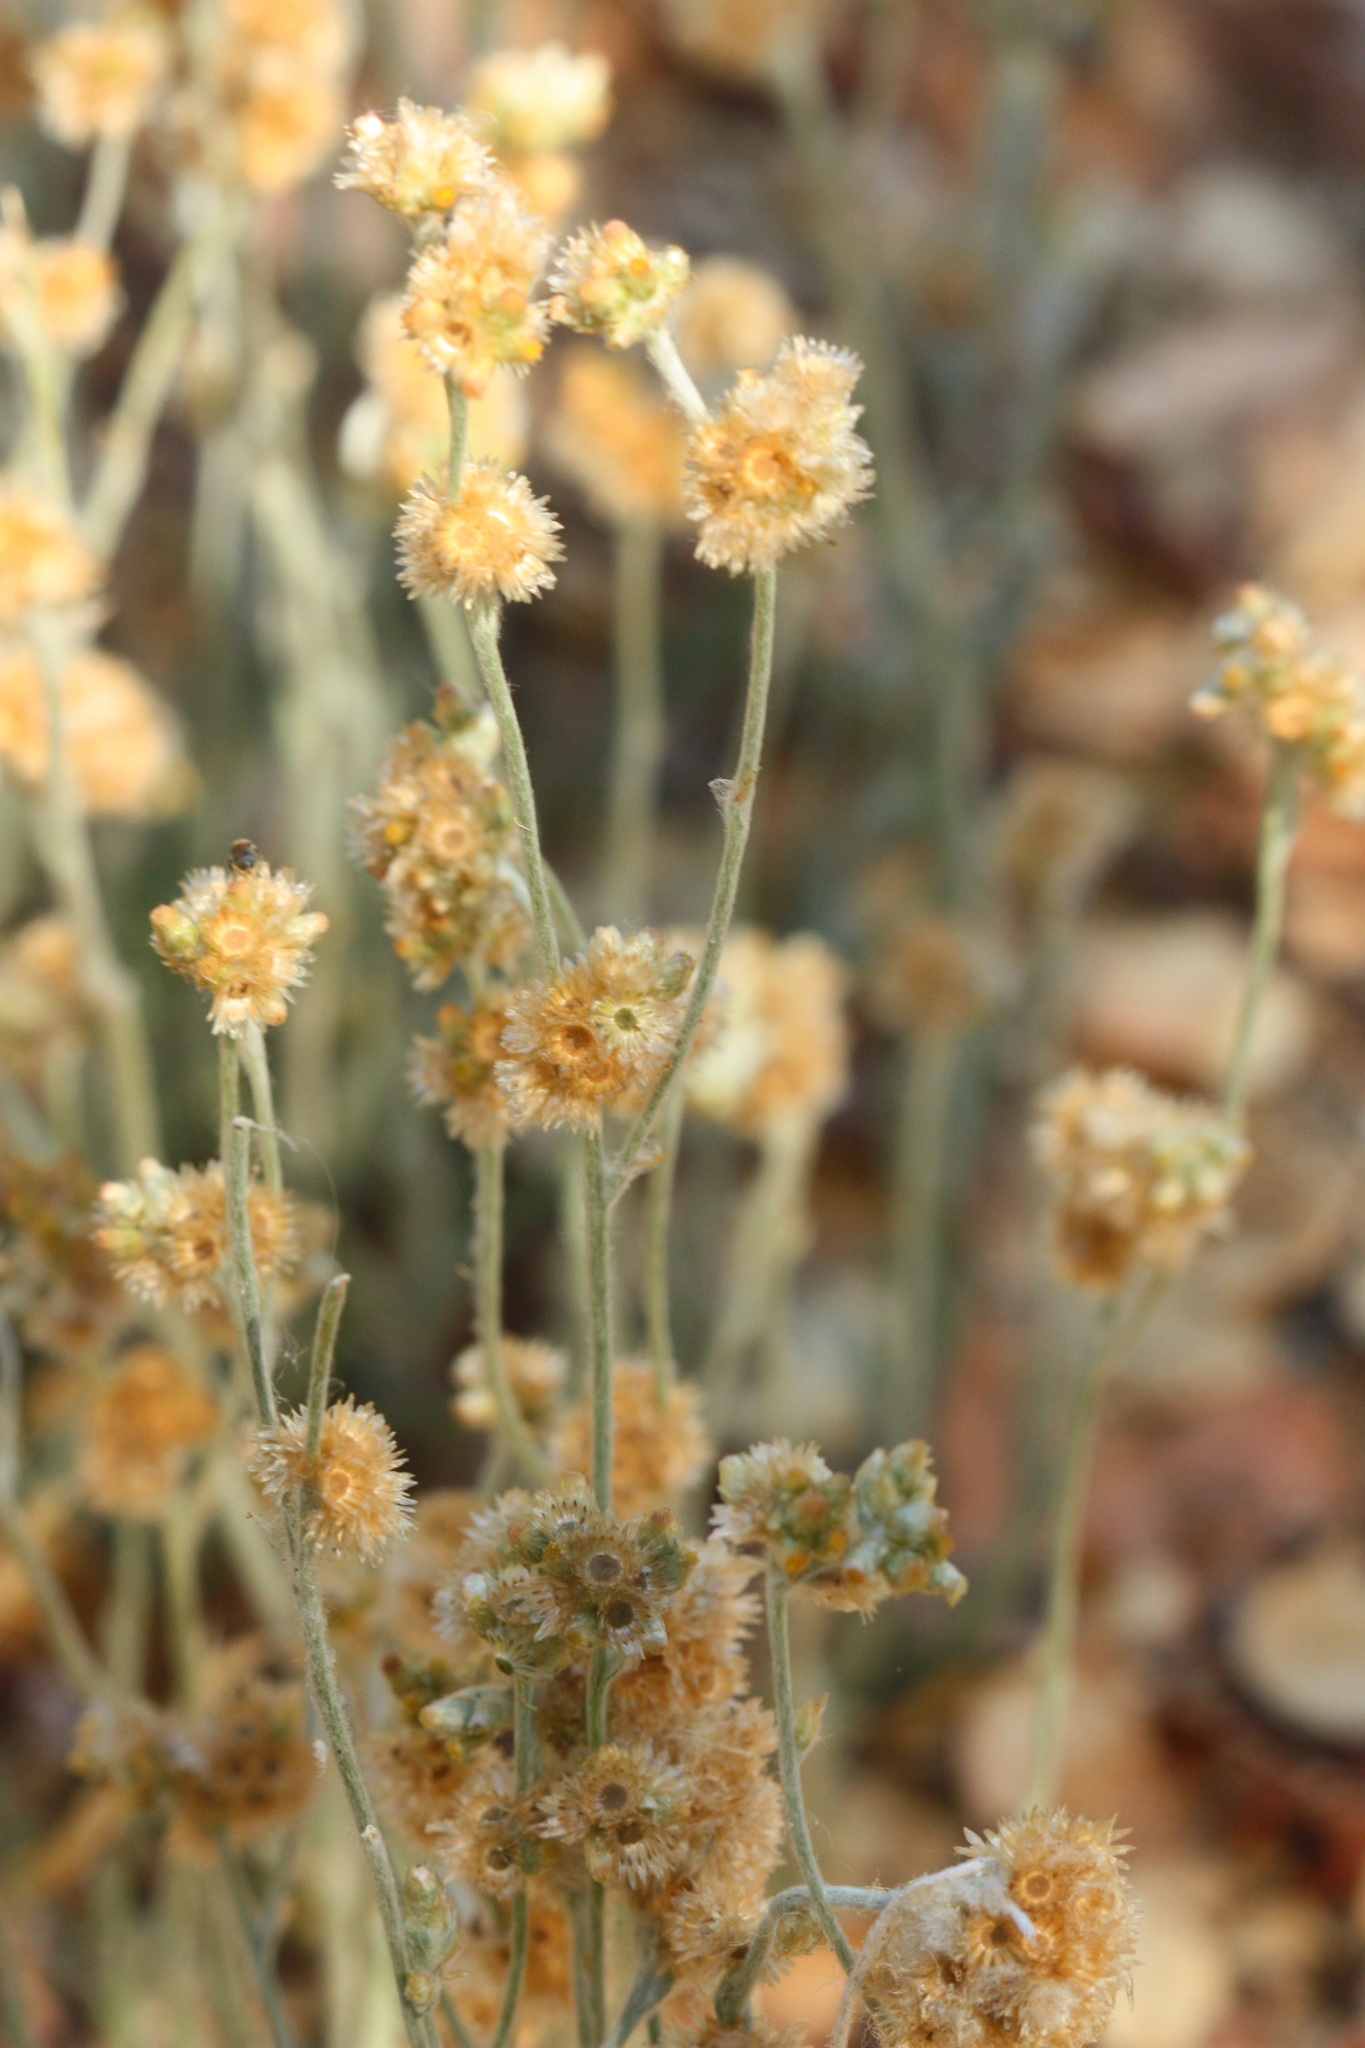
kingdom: Plantae
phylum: Tracheophyta
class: Magnoliopsida
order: Asterales
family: Asteraceae
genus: Helichrysum
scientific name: Helichrysum luteoalbum
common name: Daisy
